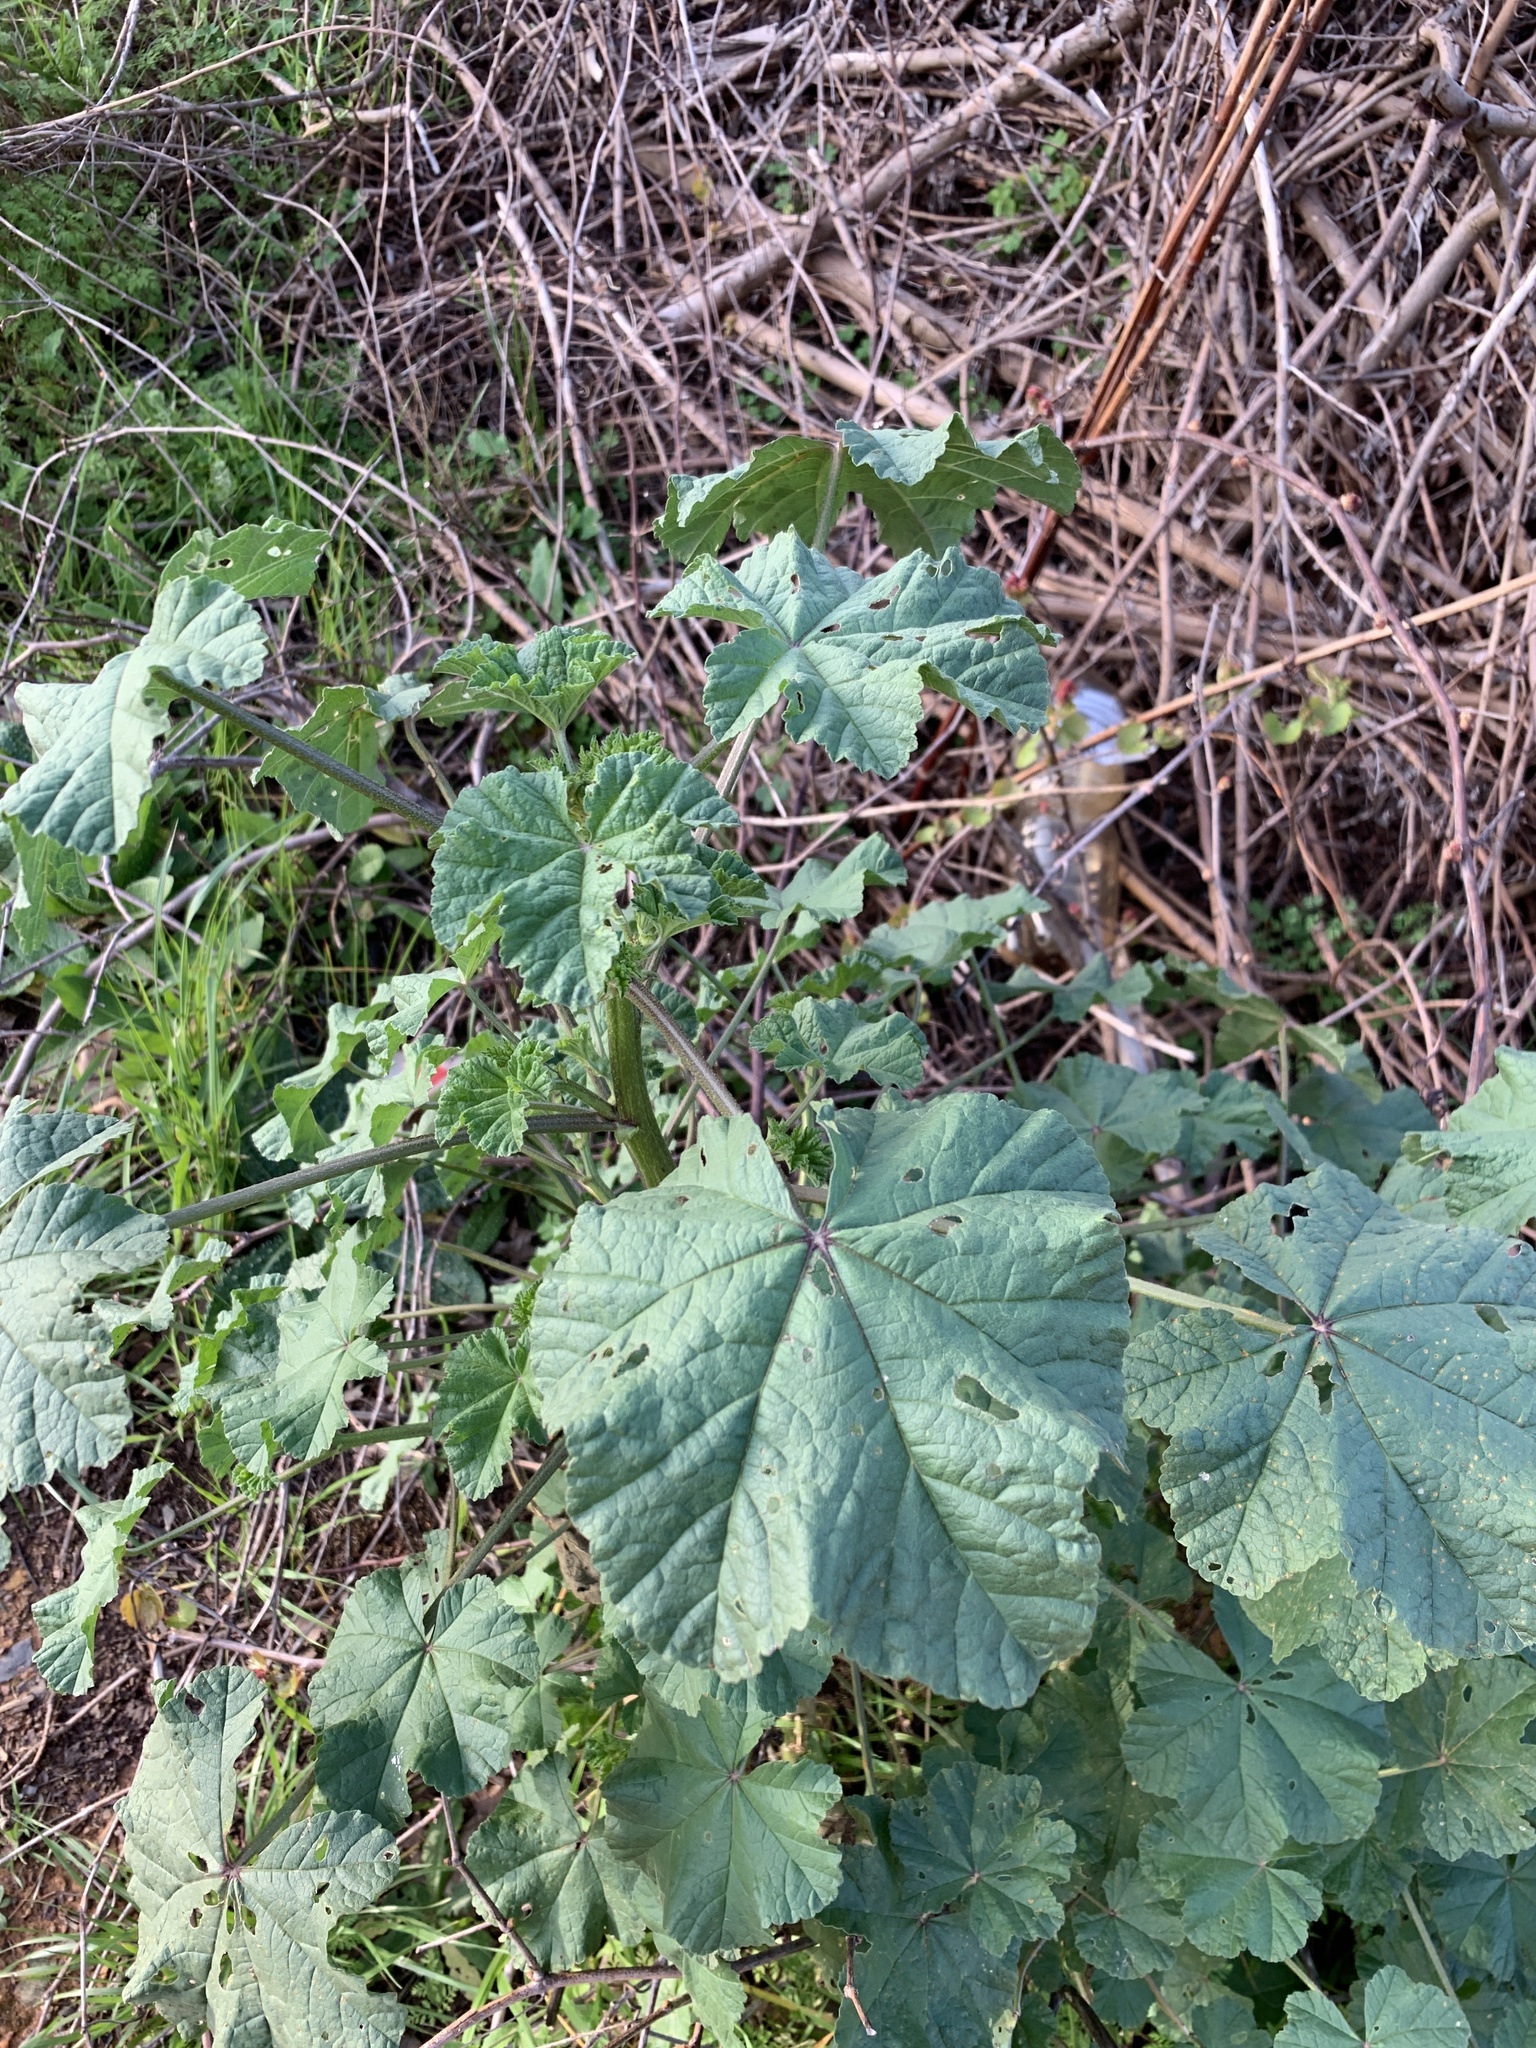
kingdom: Plantae
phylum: Tracheophyta
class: Magnoliopsida
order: Malvales
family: Malvaceae
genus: Malva
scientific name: Malva parviflora
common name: Least mallow
